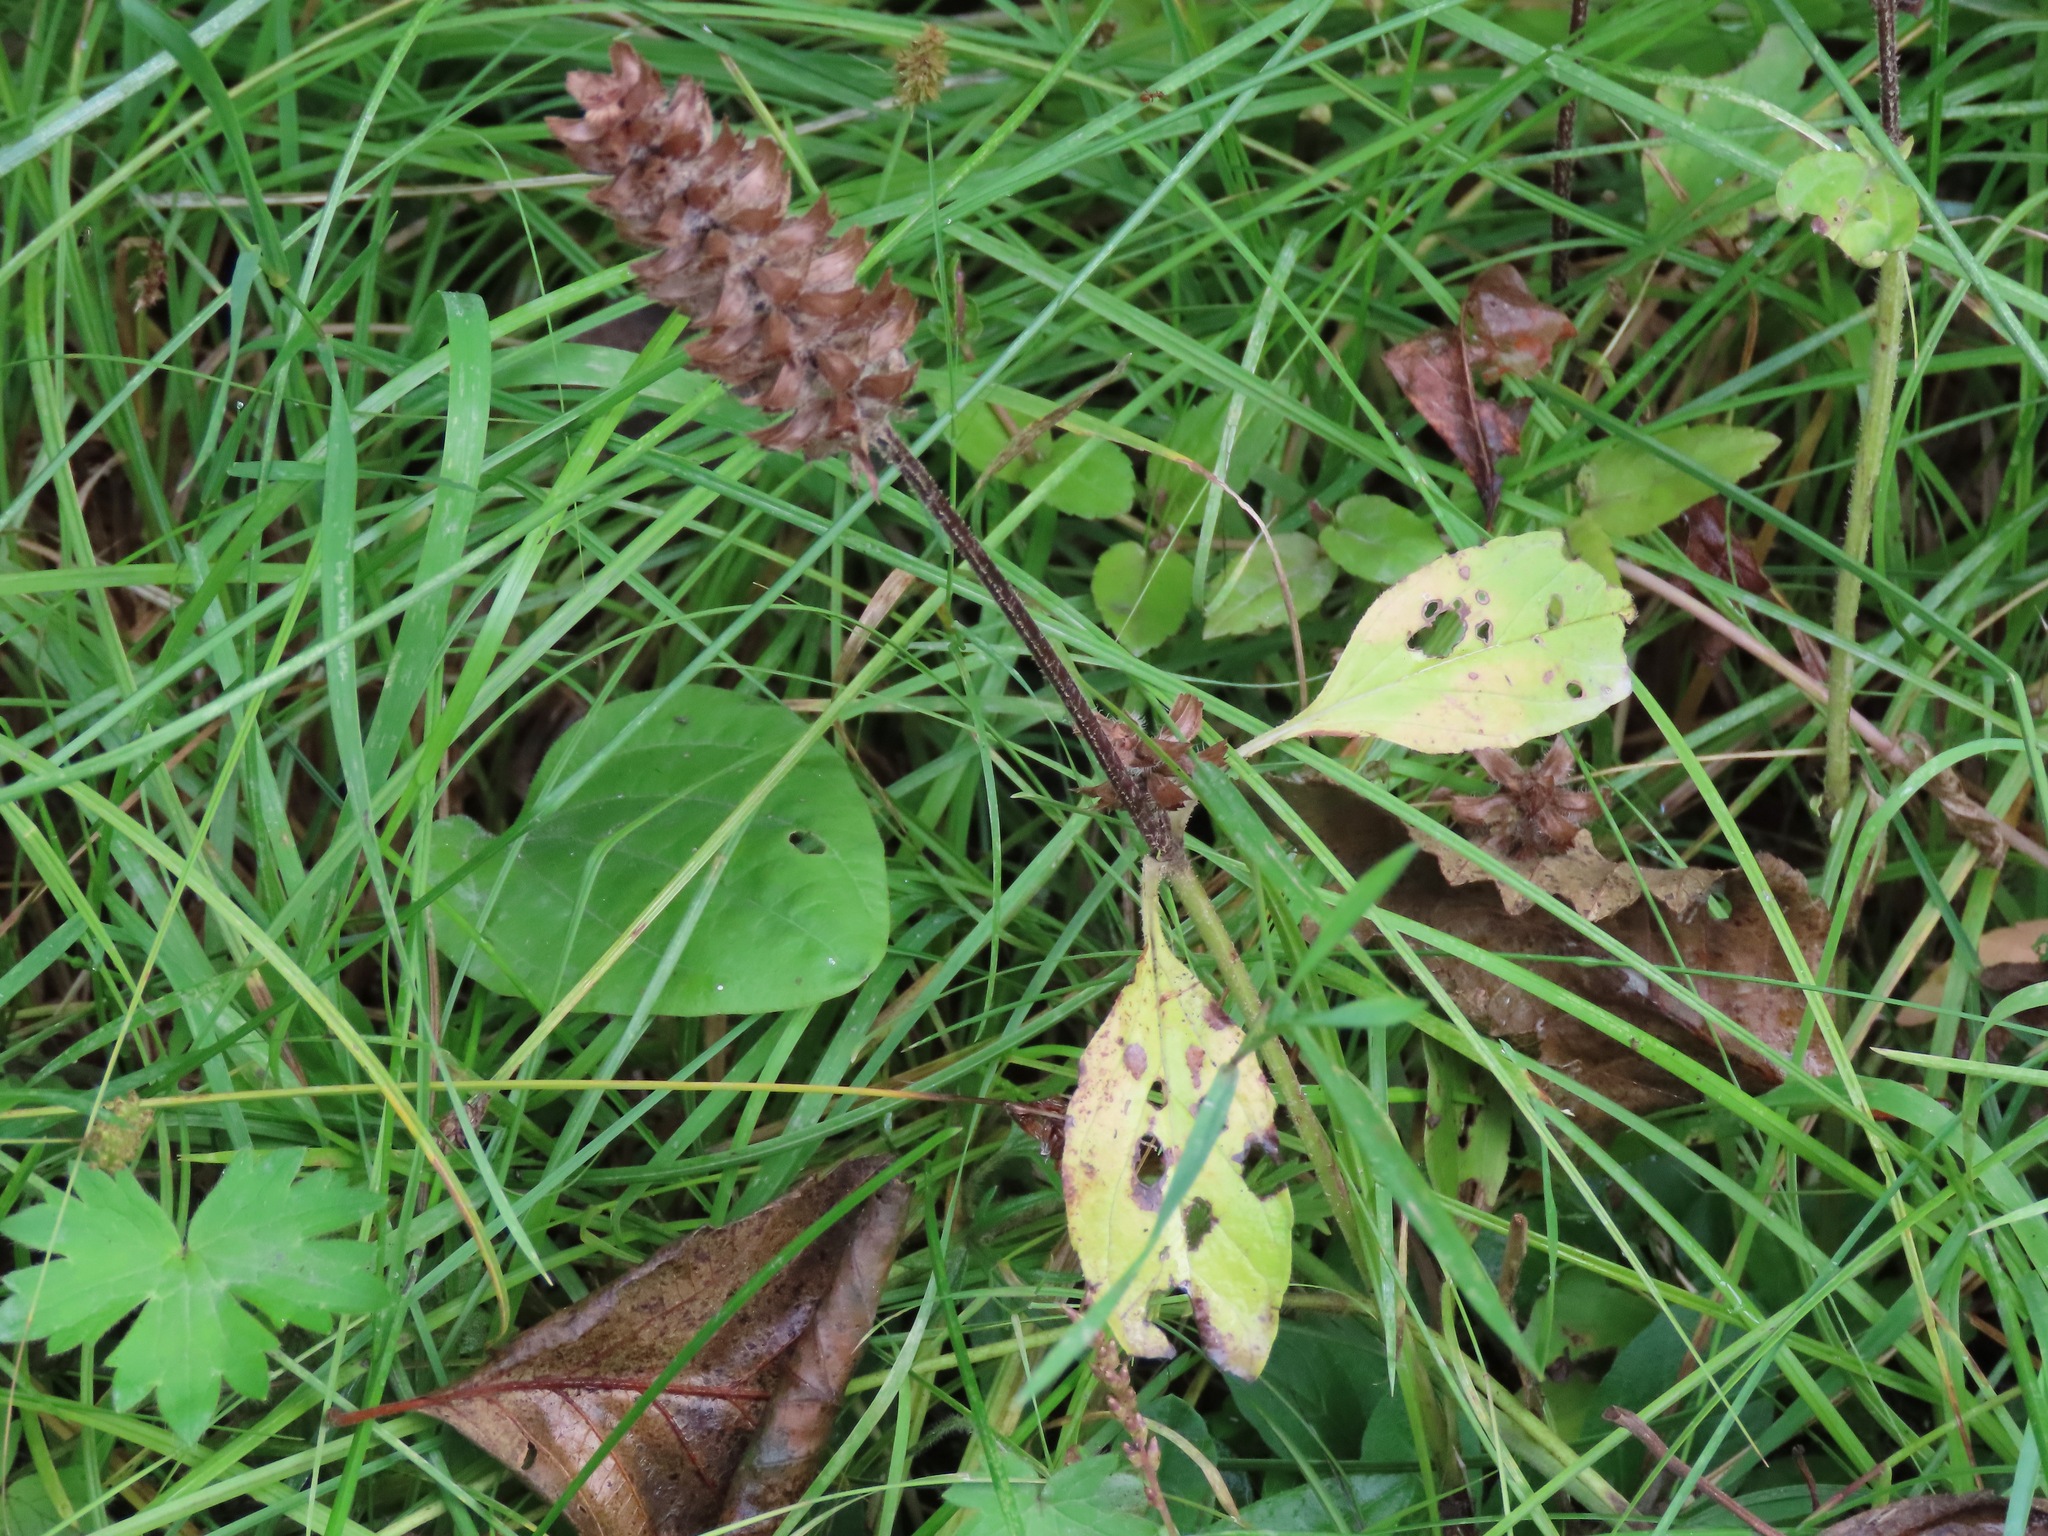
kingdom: Plantae
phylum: Tracheophyta
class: Magnoliopsida
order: Lamiales
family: Lamiaceae
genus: Prunella
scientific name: Prunella vulgaris
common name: Heal-all
